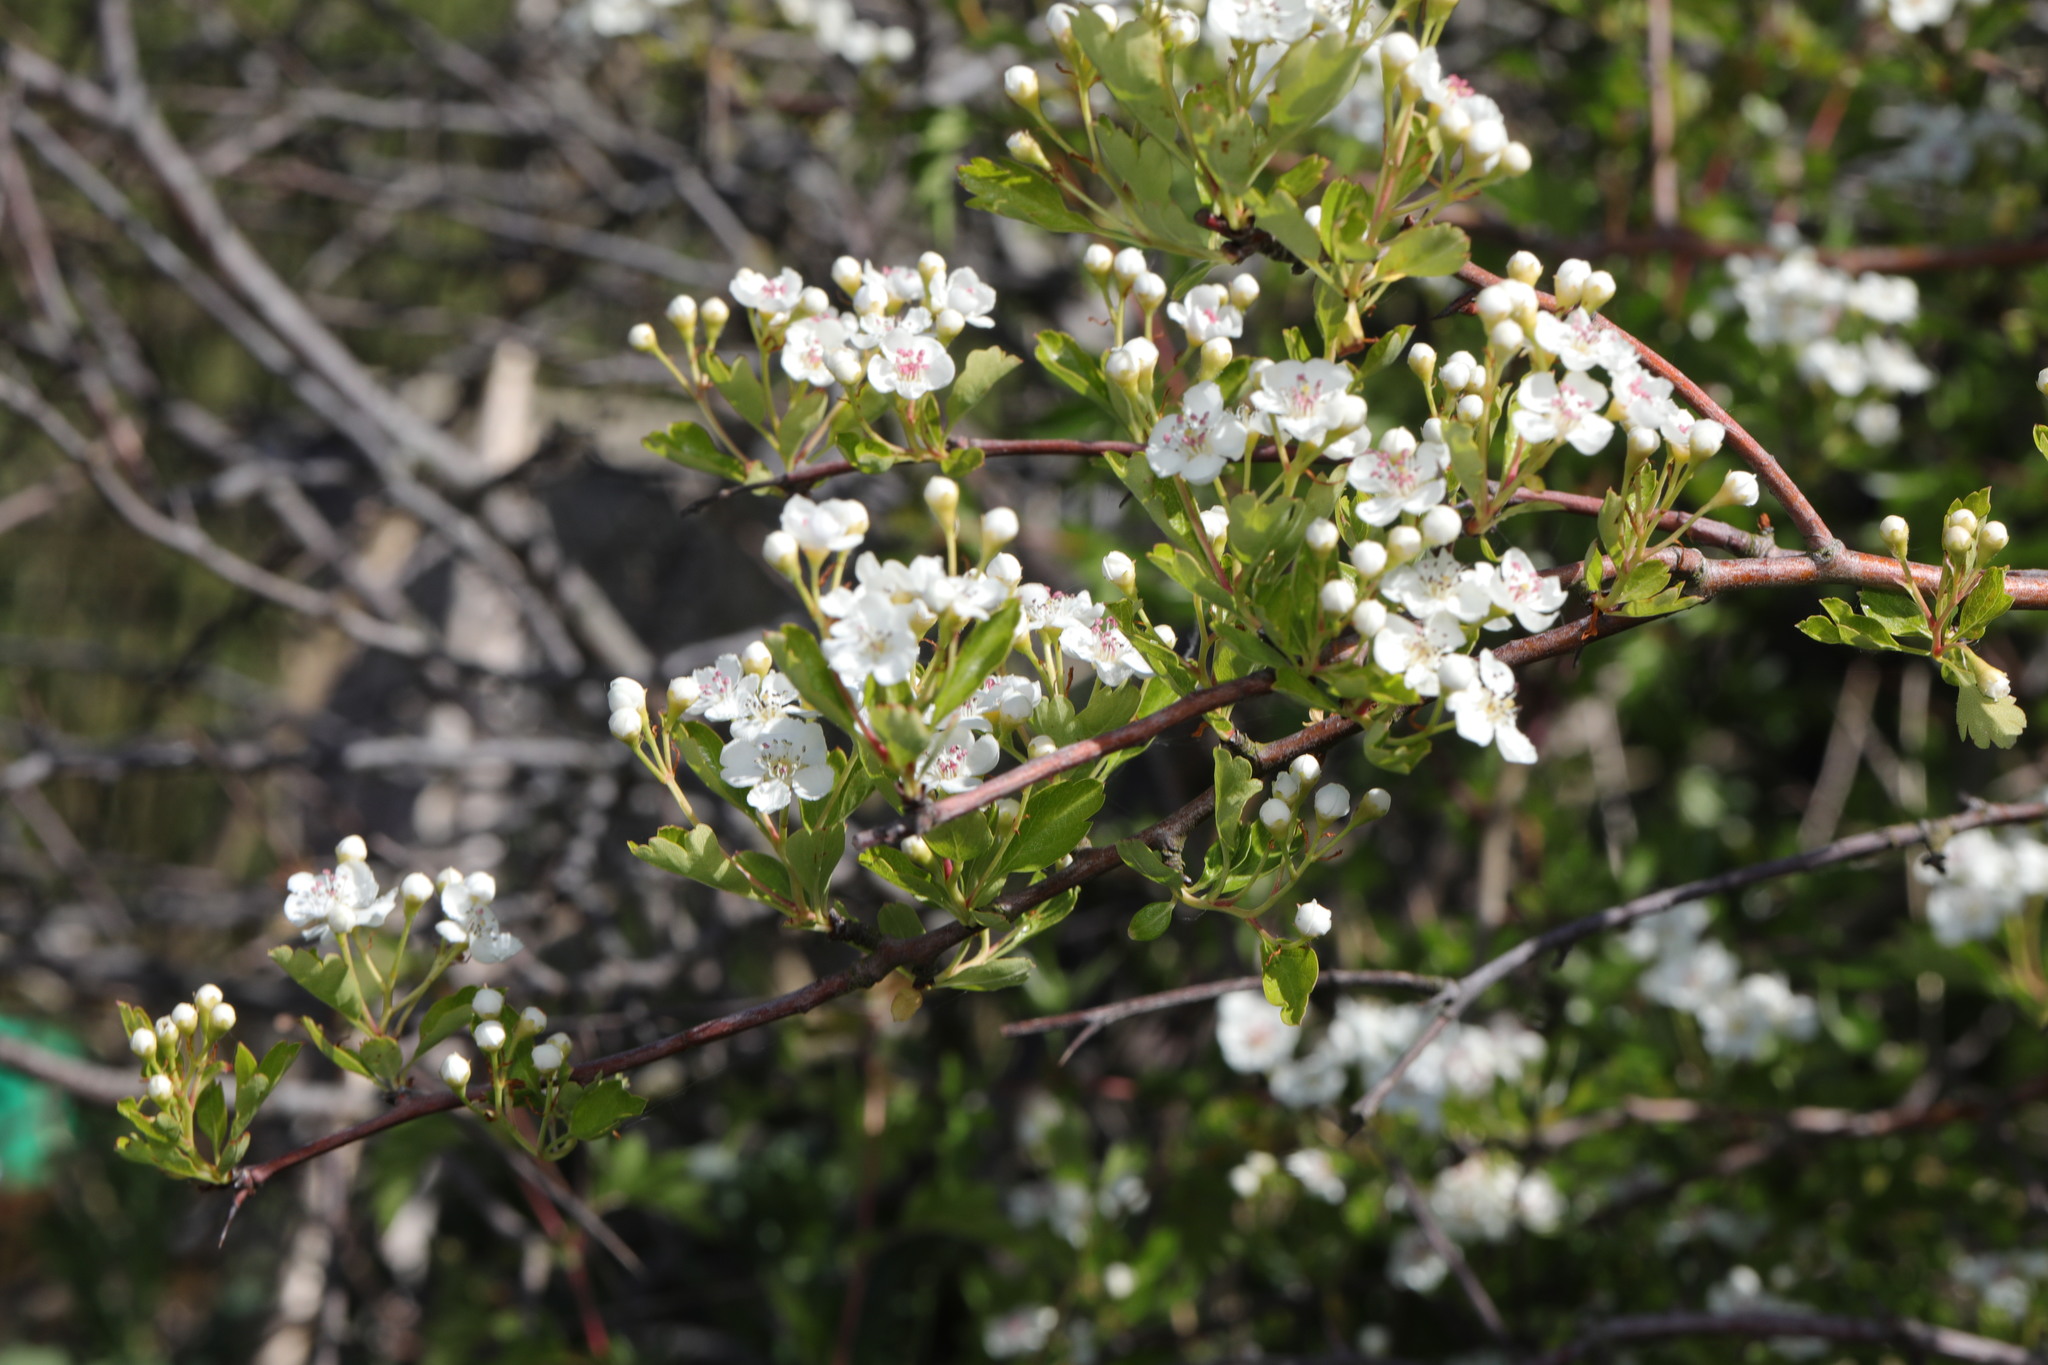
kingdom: Plantae
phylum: Tracheophyta
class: Magnoliopsida
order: Rosales
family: Rosaceae
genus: Crataegus
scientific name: Crataegus monogyna
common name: Hawthorn
